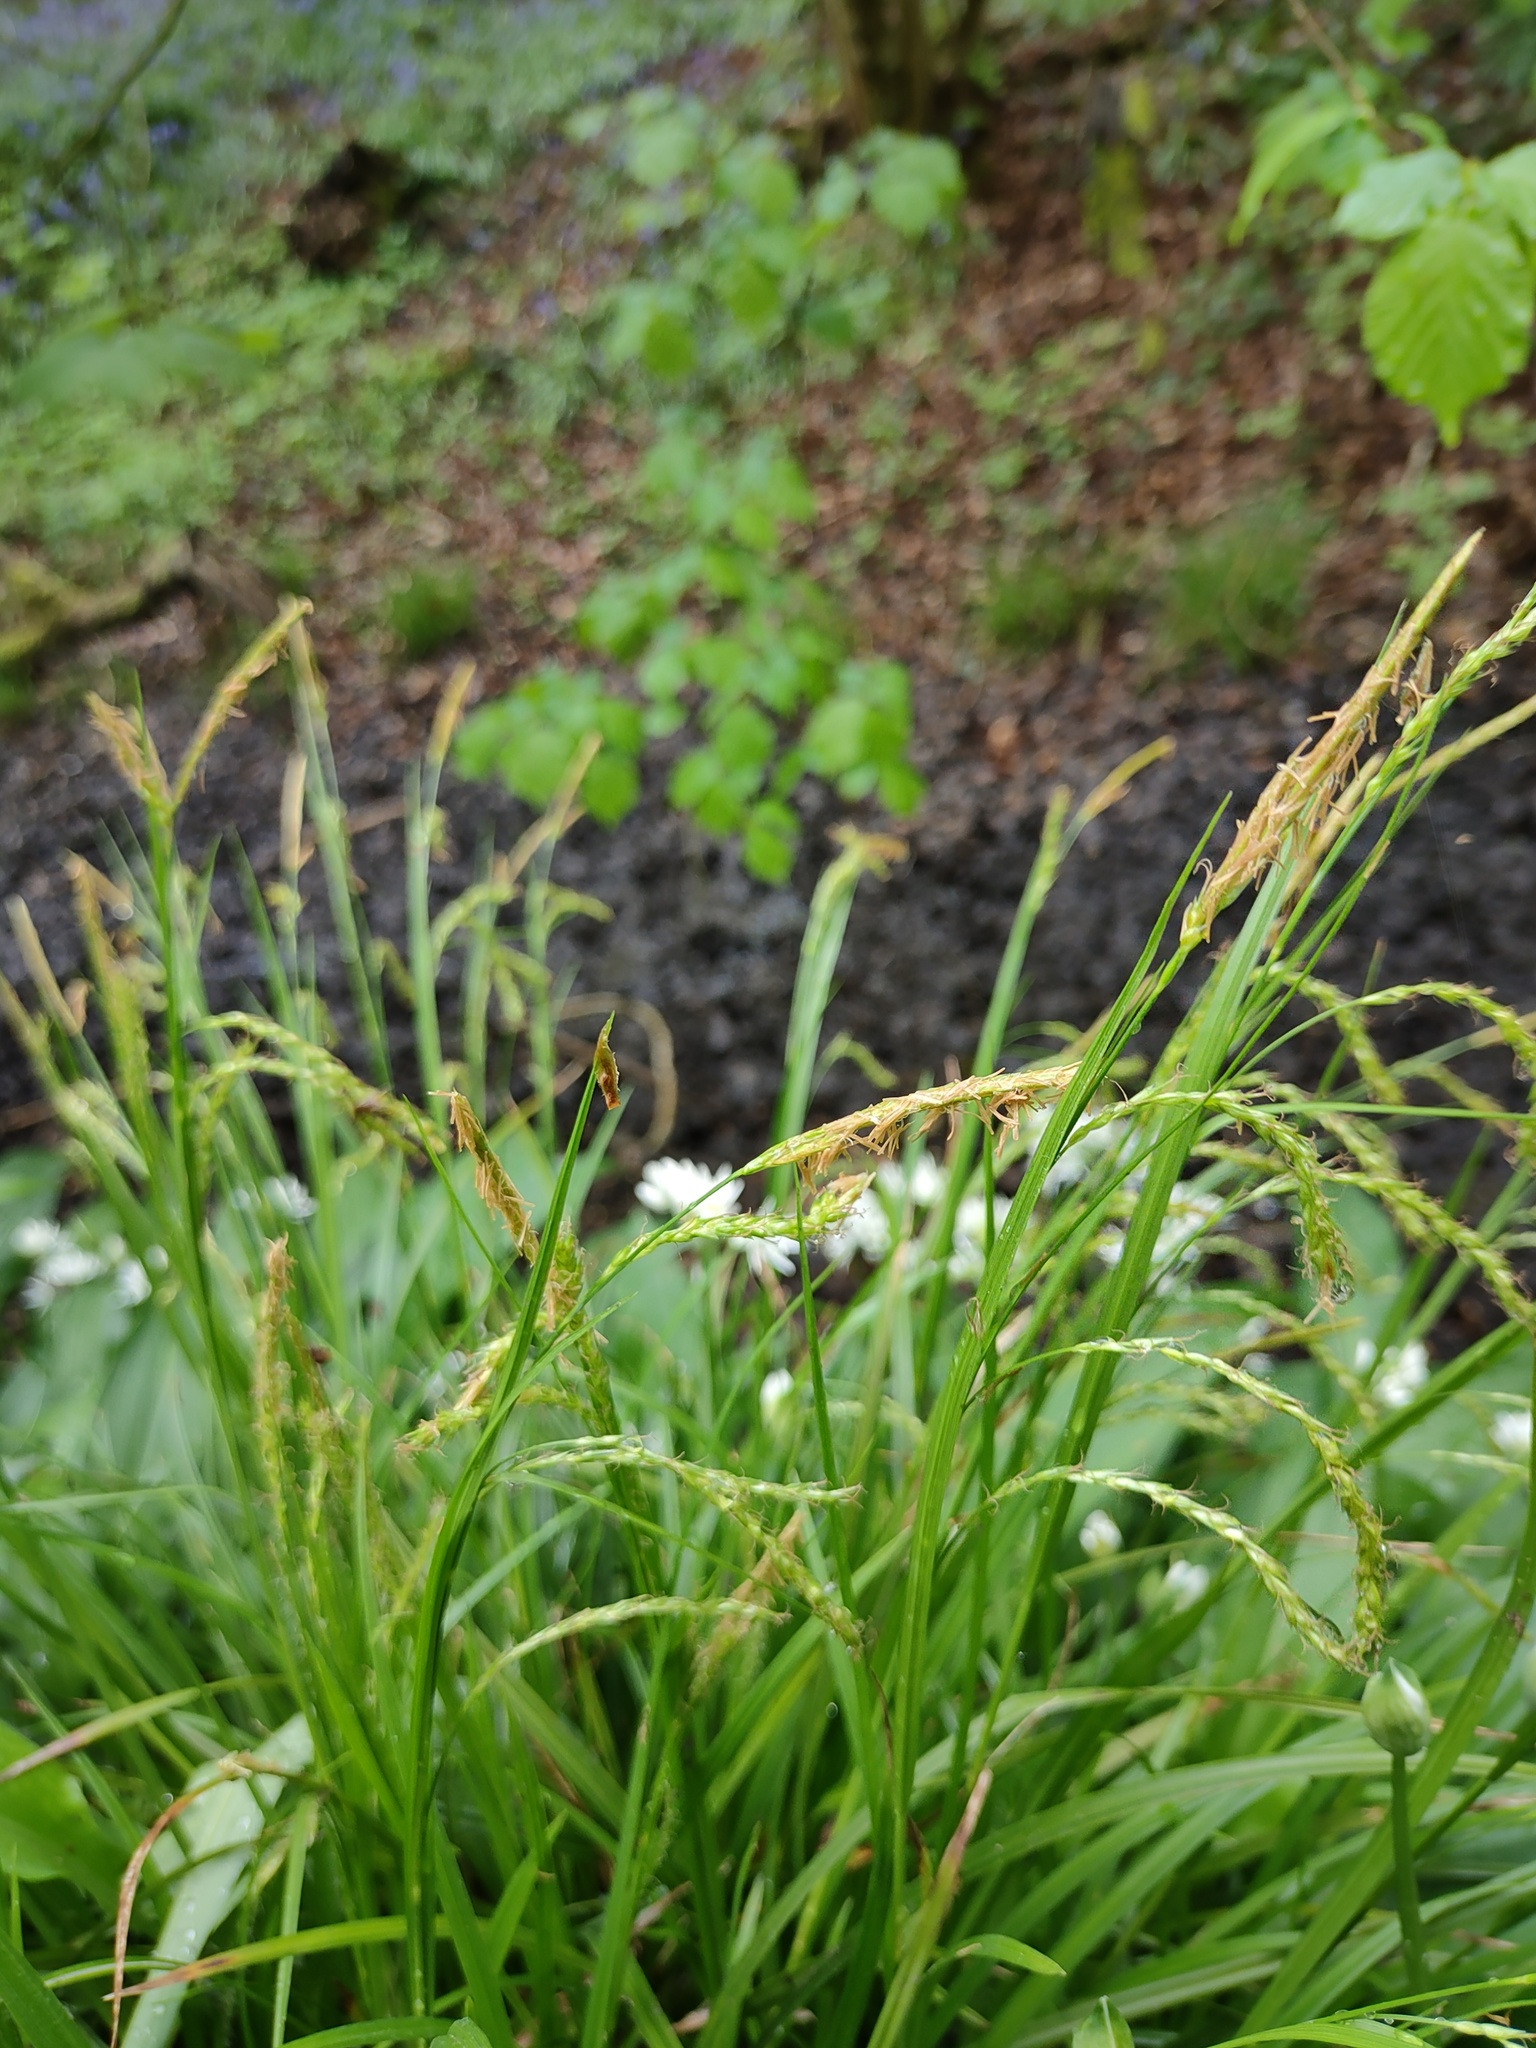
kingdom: Plantae
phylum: Tracheophyta
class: Liliopsida
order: Poales
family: Cyperaceae
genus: Carex
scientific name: Carex sylvatica
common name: Wood-sedge
